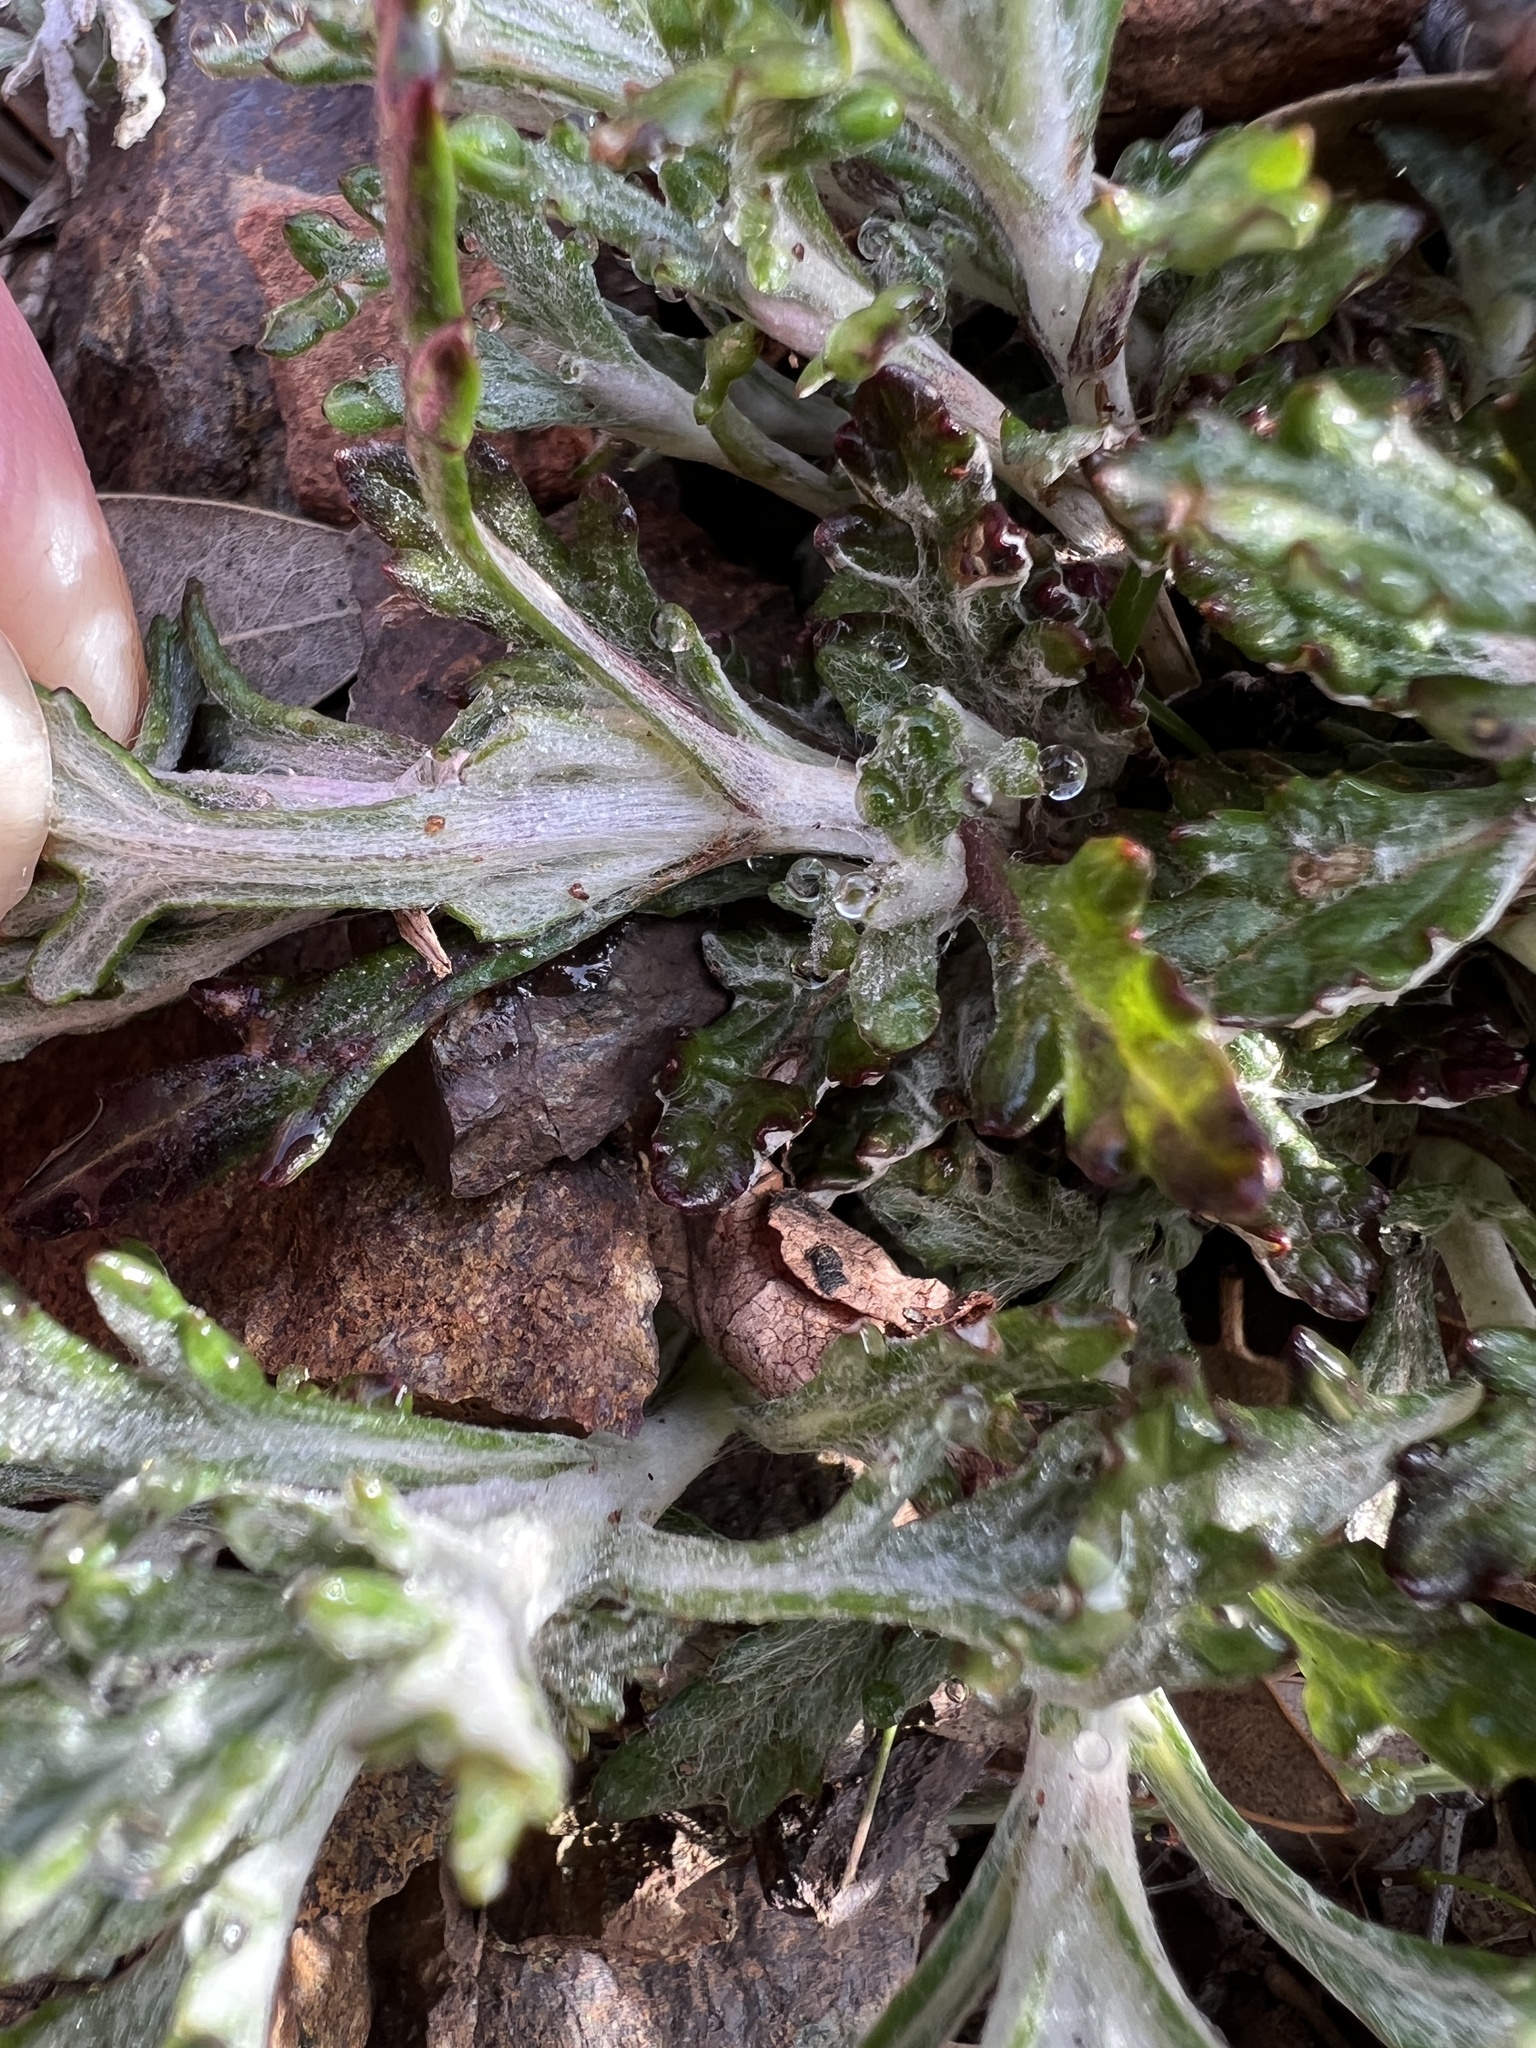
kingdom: Plantae
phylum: Tracheophyta
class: Magnoliopsida
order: Asterales
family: Asteraceae
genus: Eriophyllum
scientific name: Eriophyllum lanatum
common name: Common woolly-sunflower
